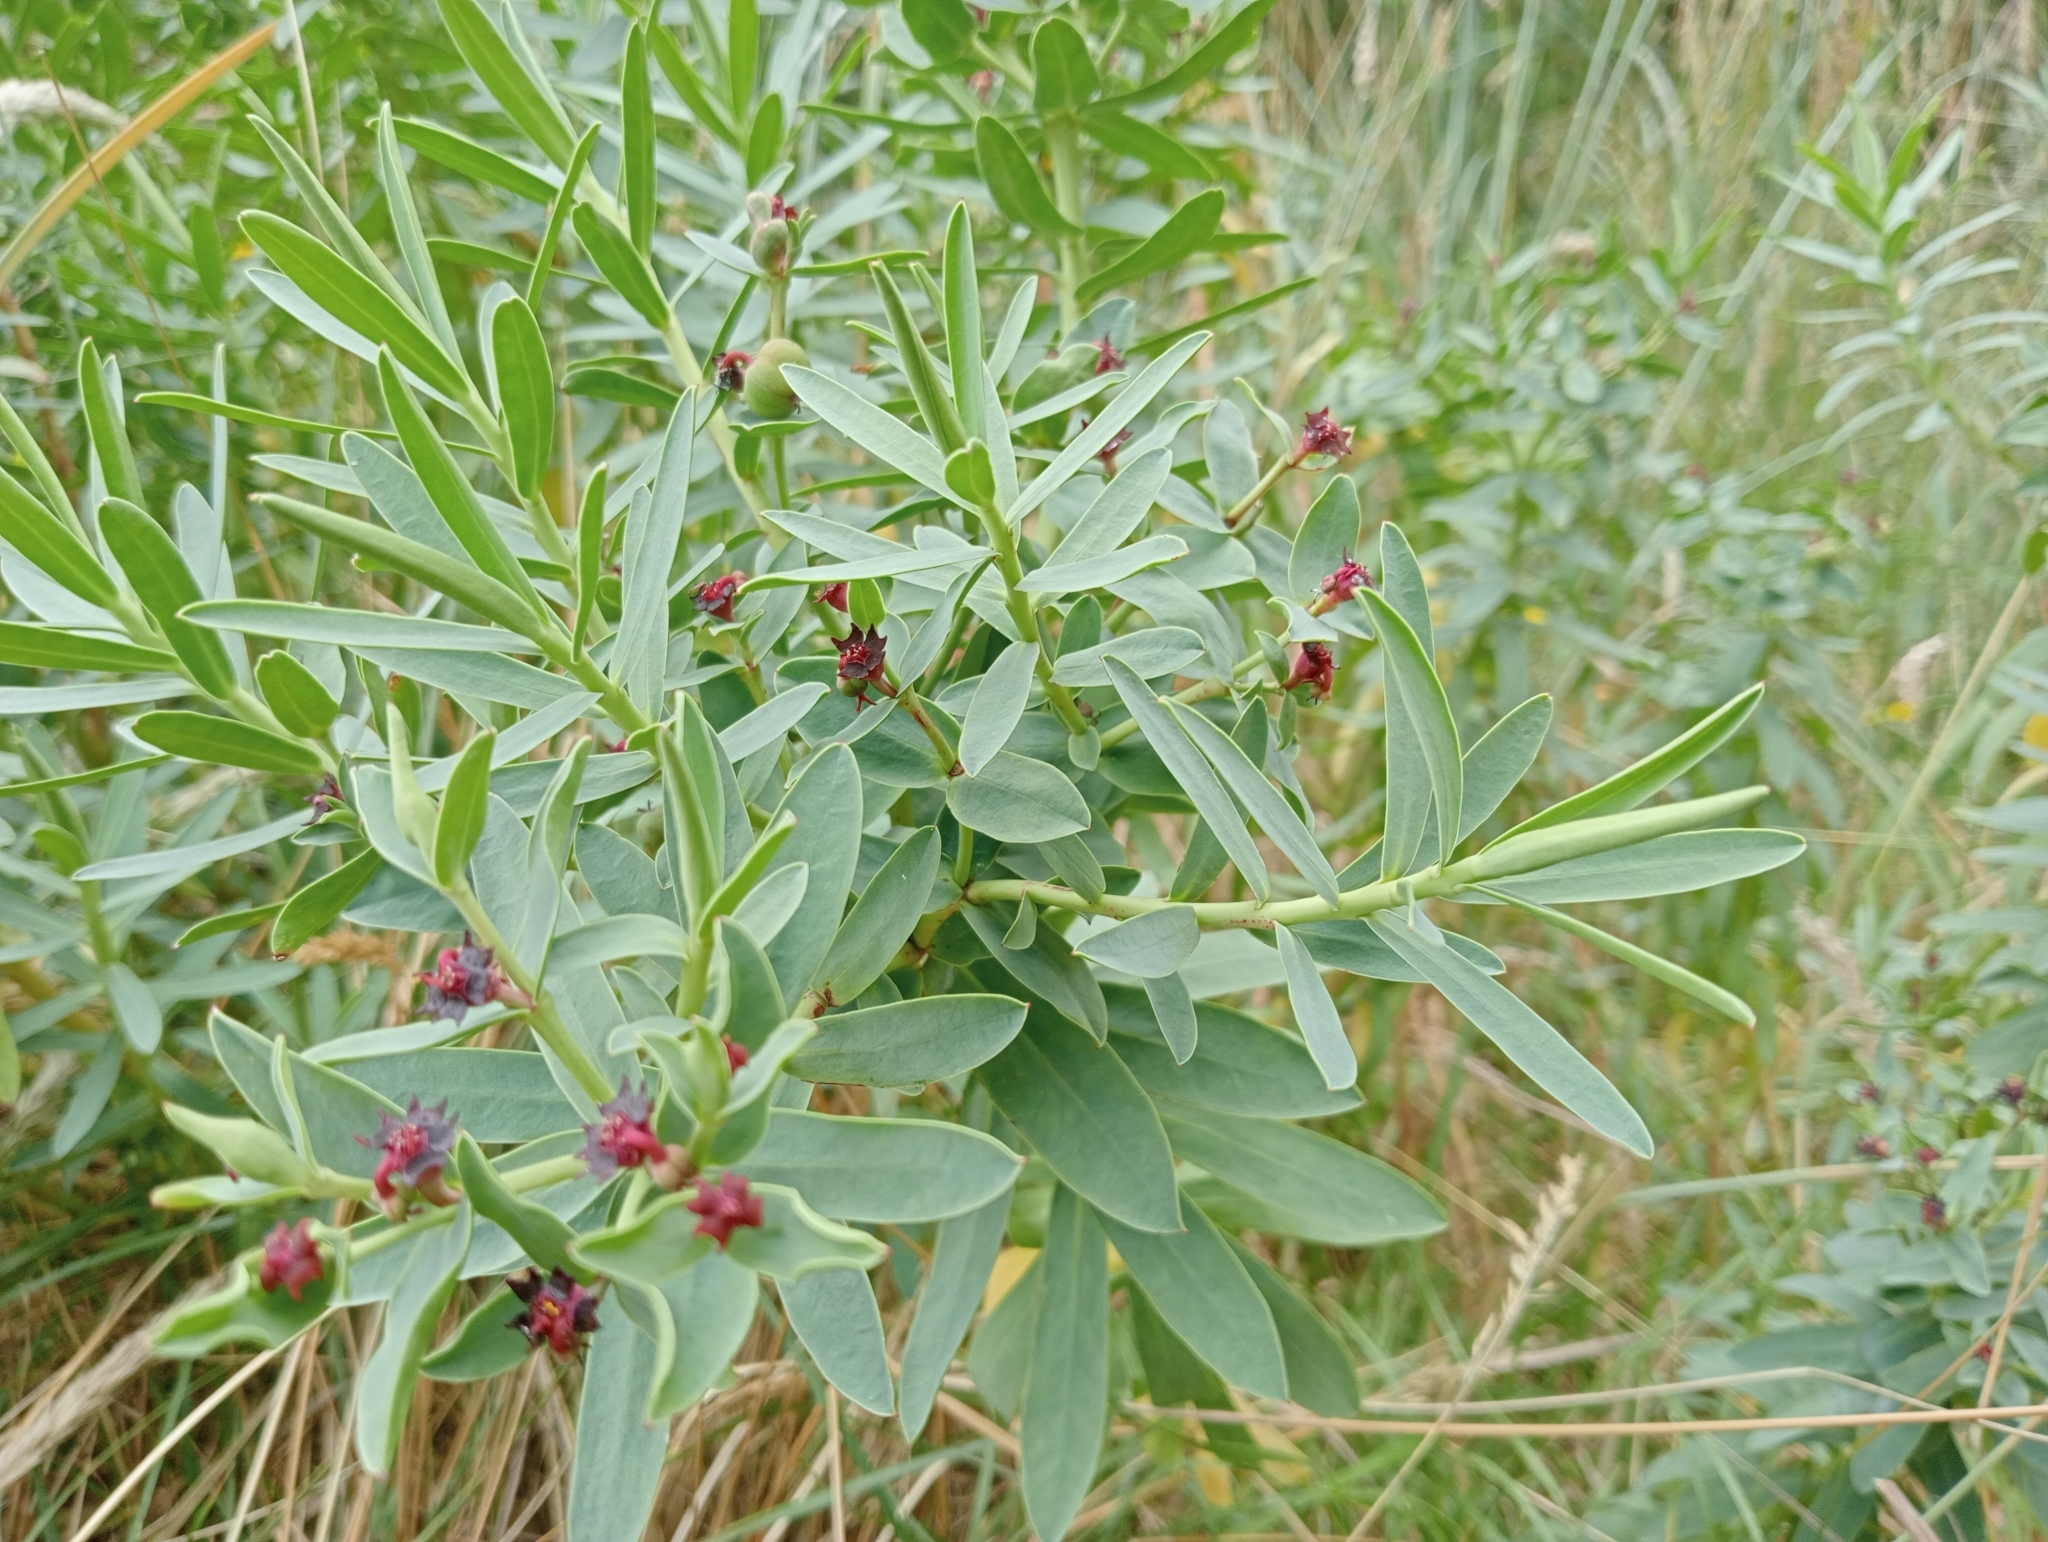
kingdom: Plantae
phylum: Tracheophyta
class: Magnoliopsida
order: Malpighiales
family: Euphorbiaceae
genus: Euphorbia
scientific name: Euphorbia glauca
